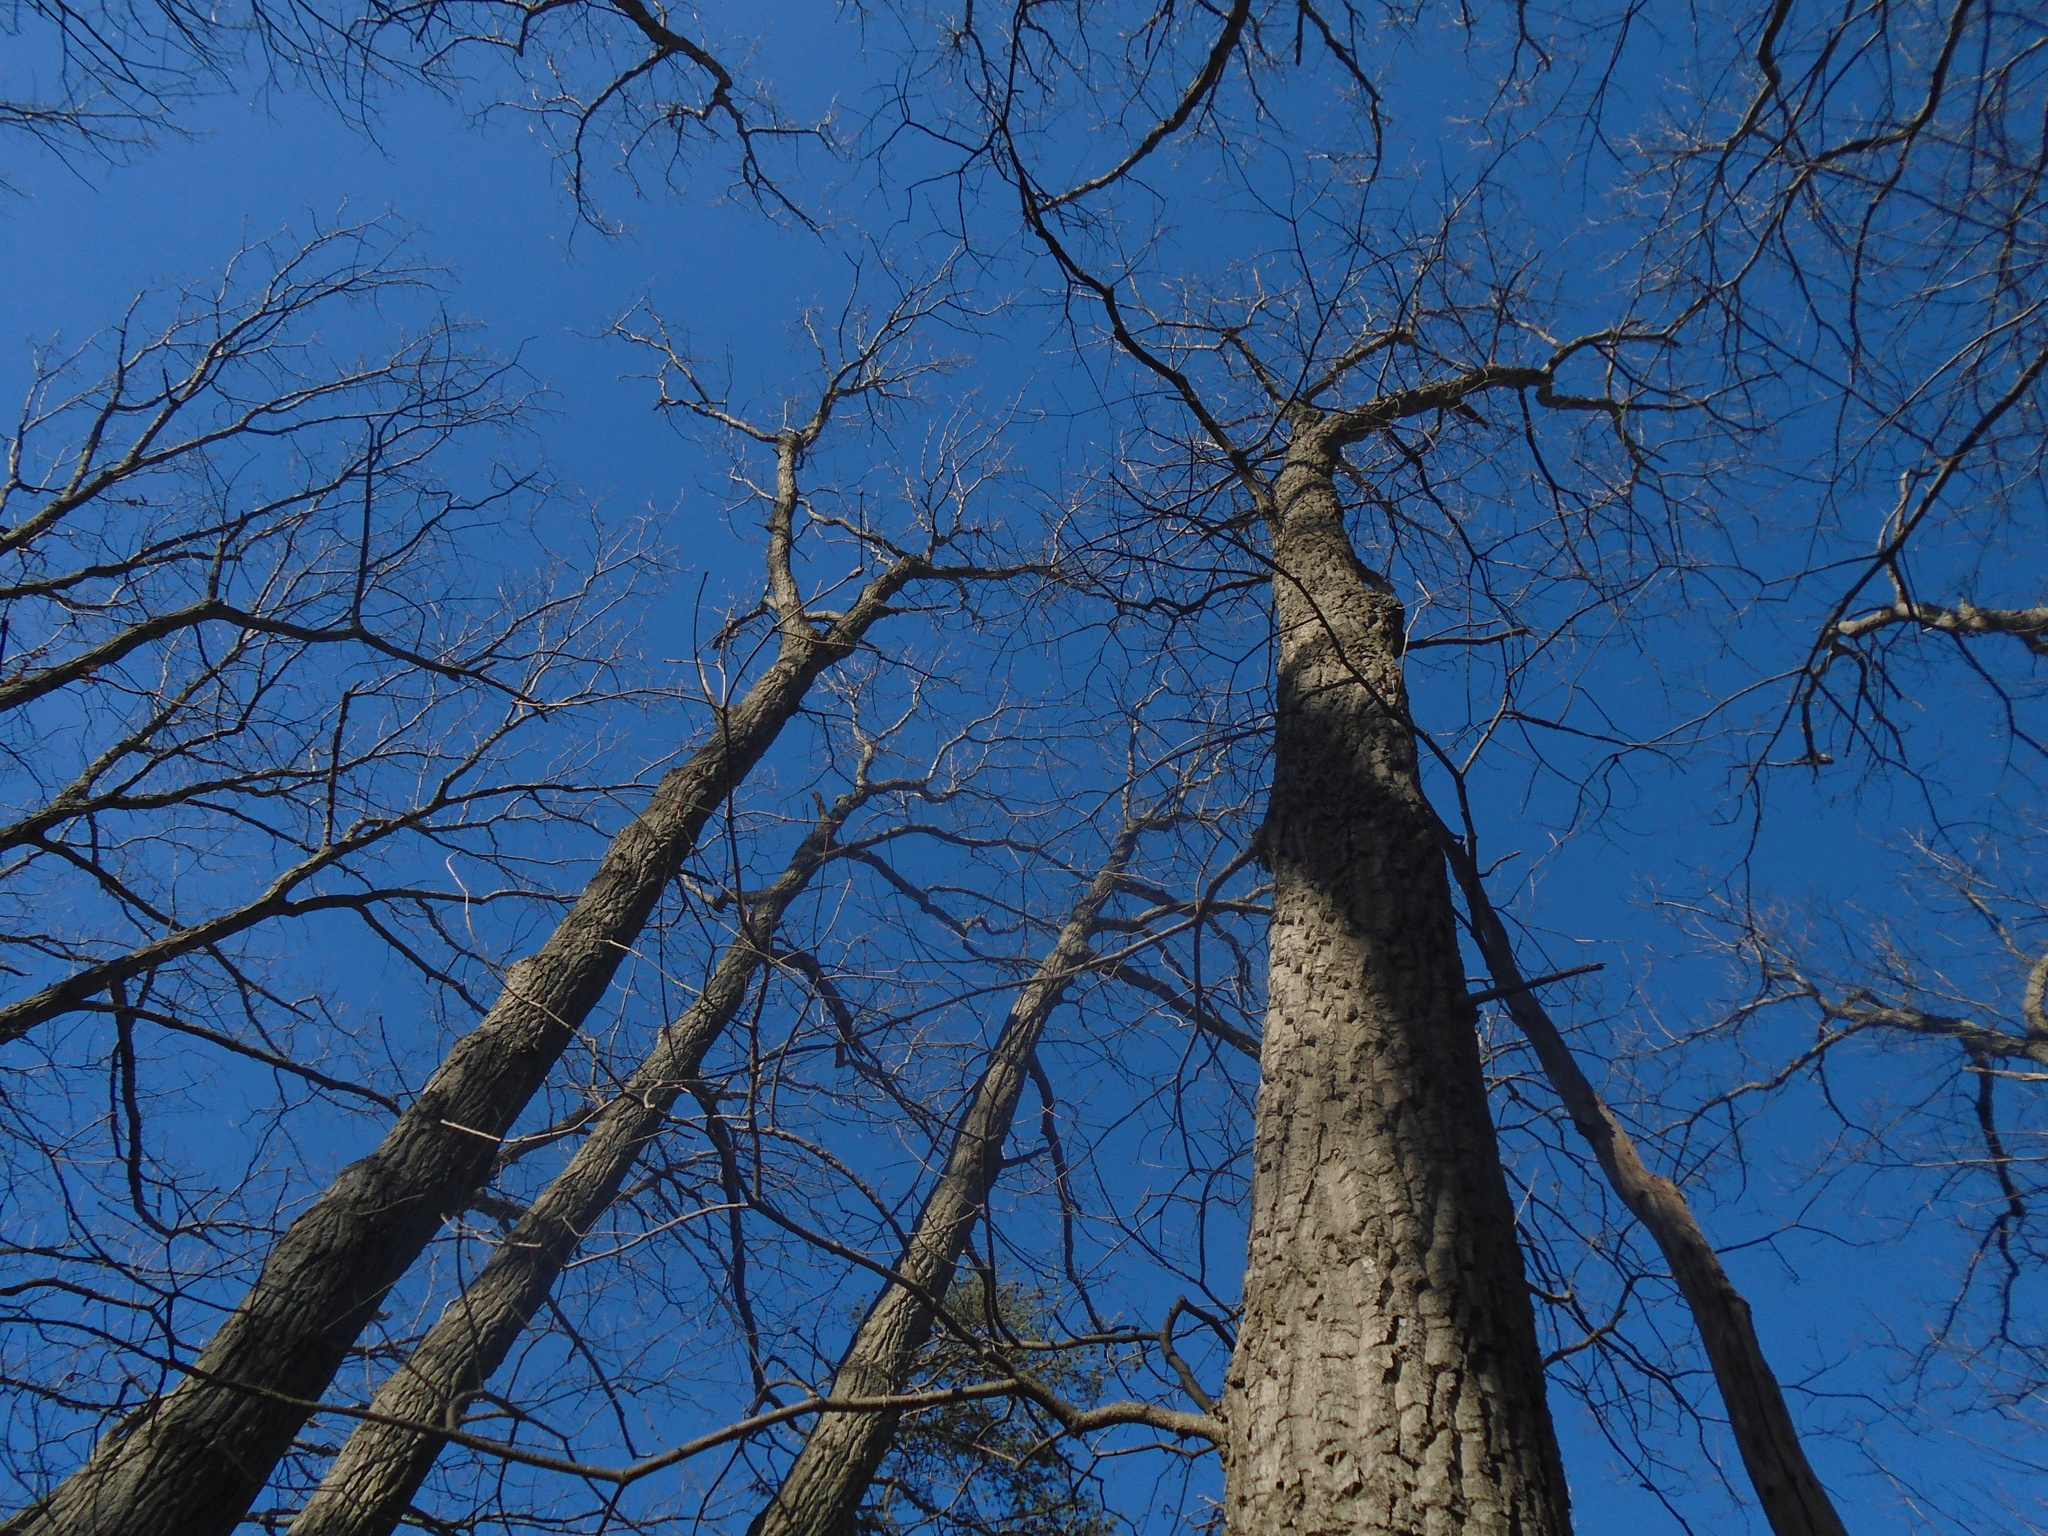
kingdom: Plantae
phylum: Tracheophyta
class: Magnoliopsida
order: Fagales
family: Fagaceae
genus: Quercus
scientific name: Quercus montana
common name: Chestnut oak
